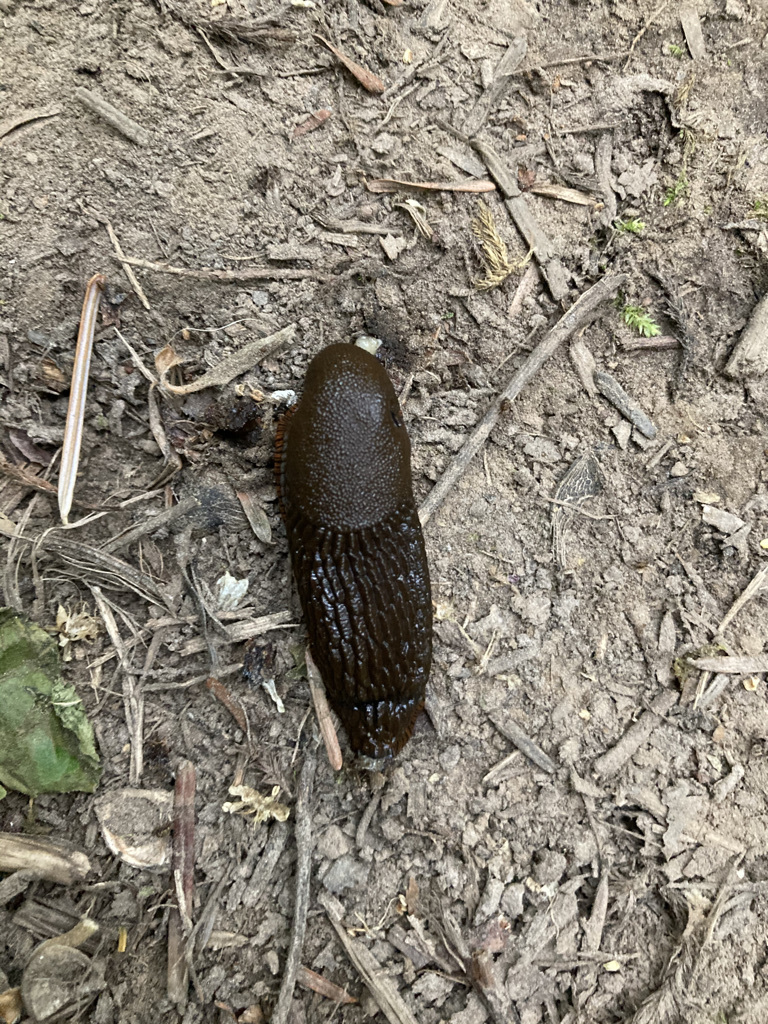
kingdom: Animalia
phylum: Mollusca
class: Gastropoda
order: Stylommatophora
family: Arionidae
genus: Arion
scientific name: Arion
